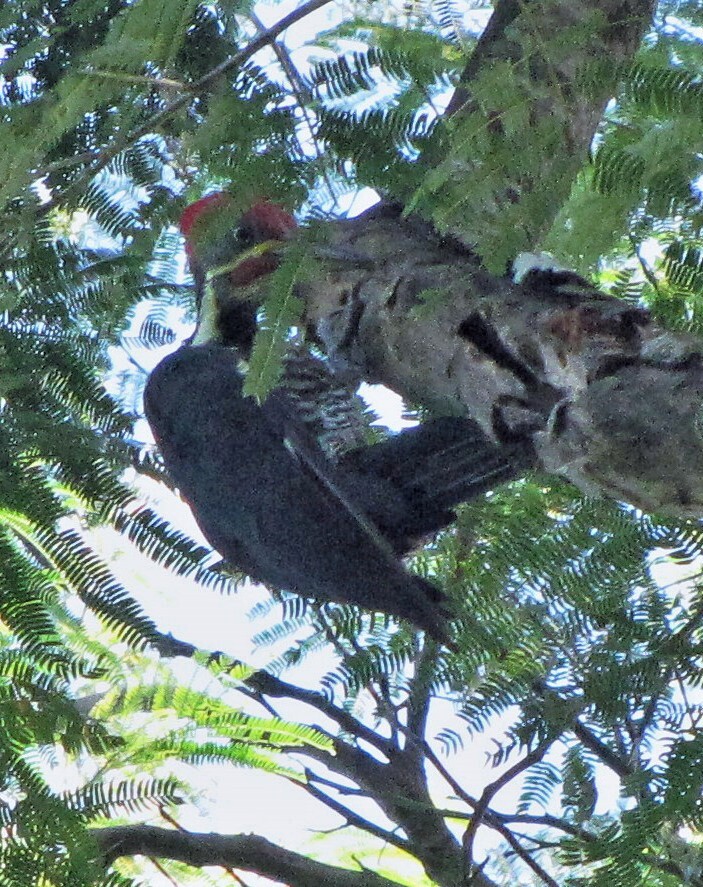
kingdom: Animalia
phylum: Chordata
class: Aves
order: Piciformes
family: Picidae
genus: Dryocopus
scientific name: Dryocopus lineatus
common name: Lineated woodpecker
